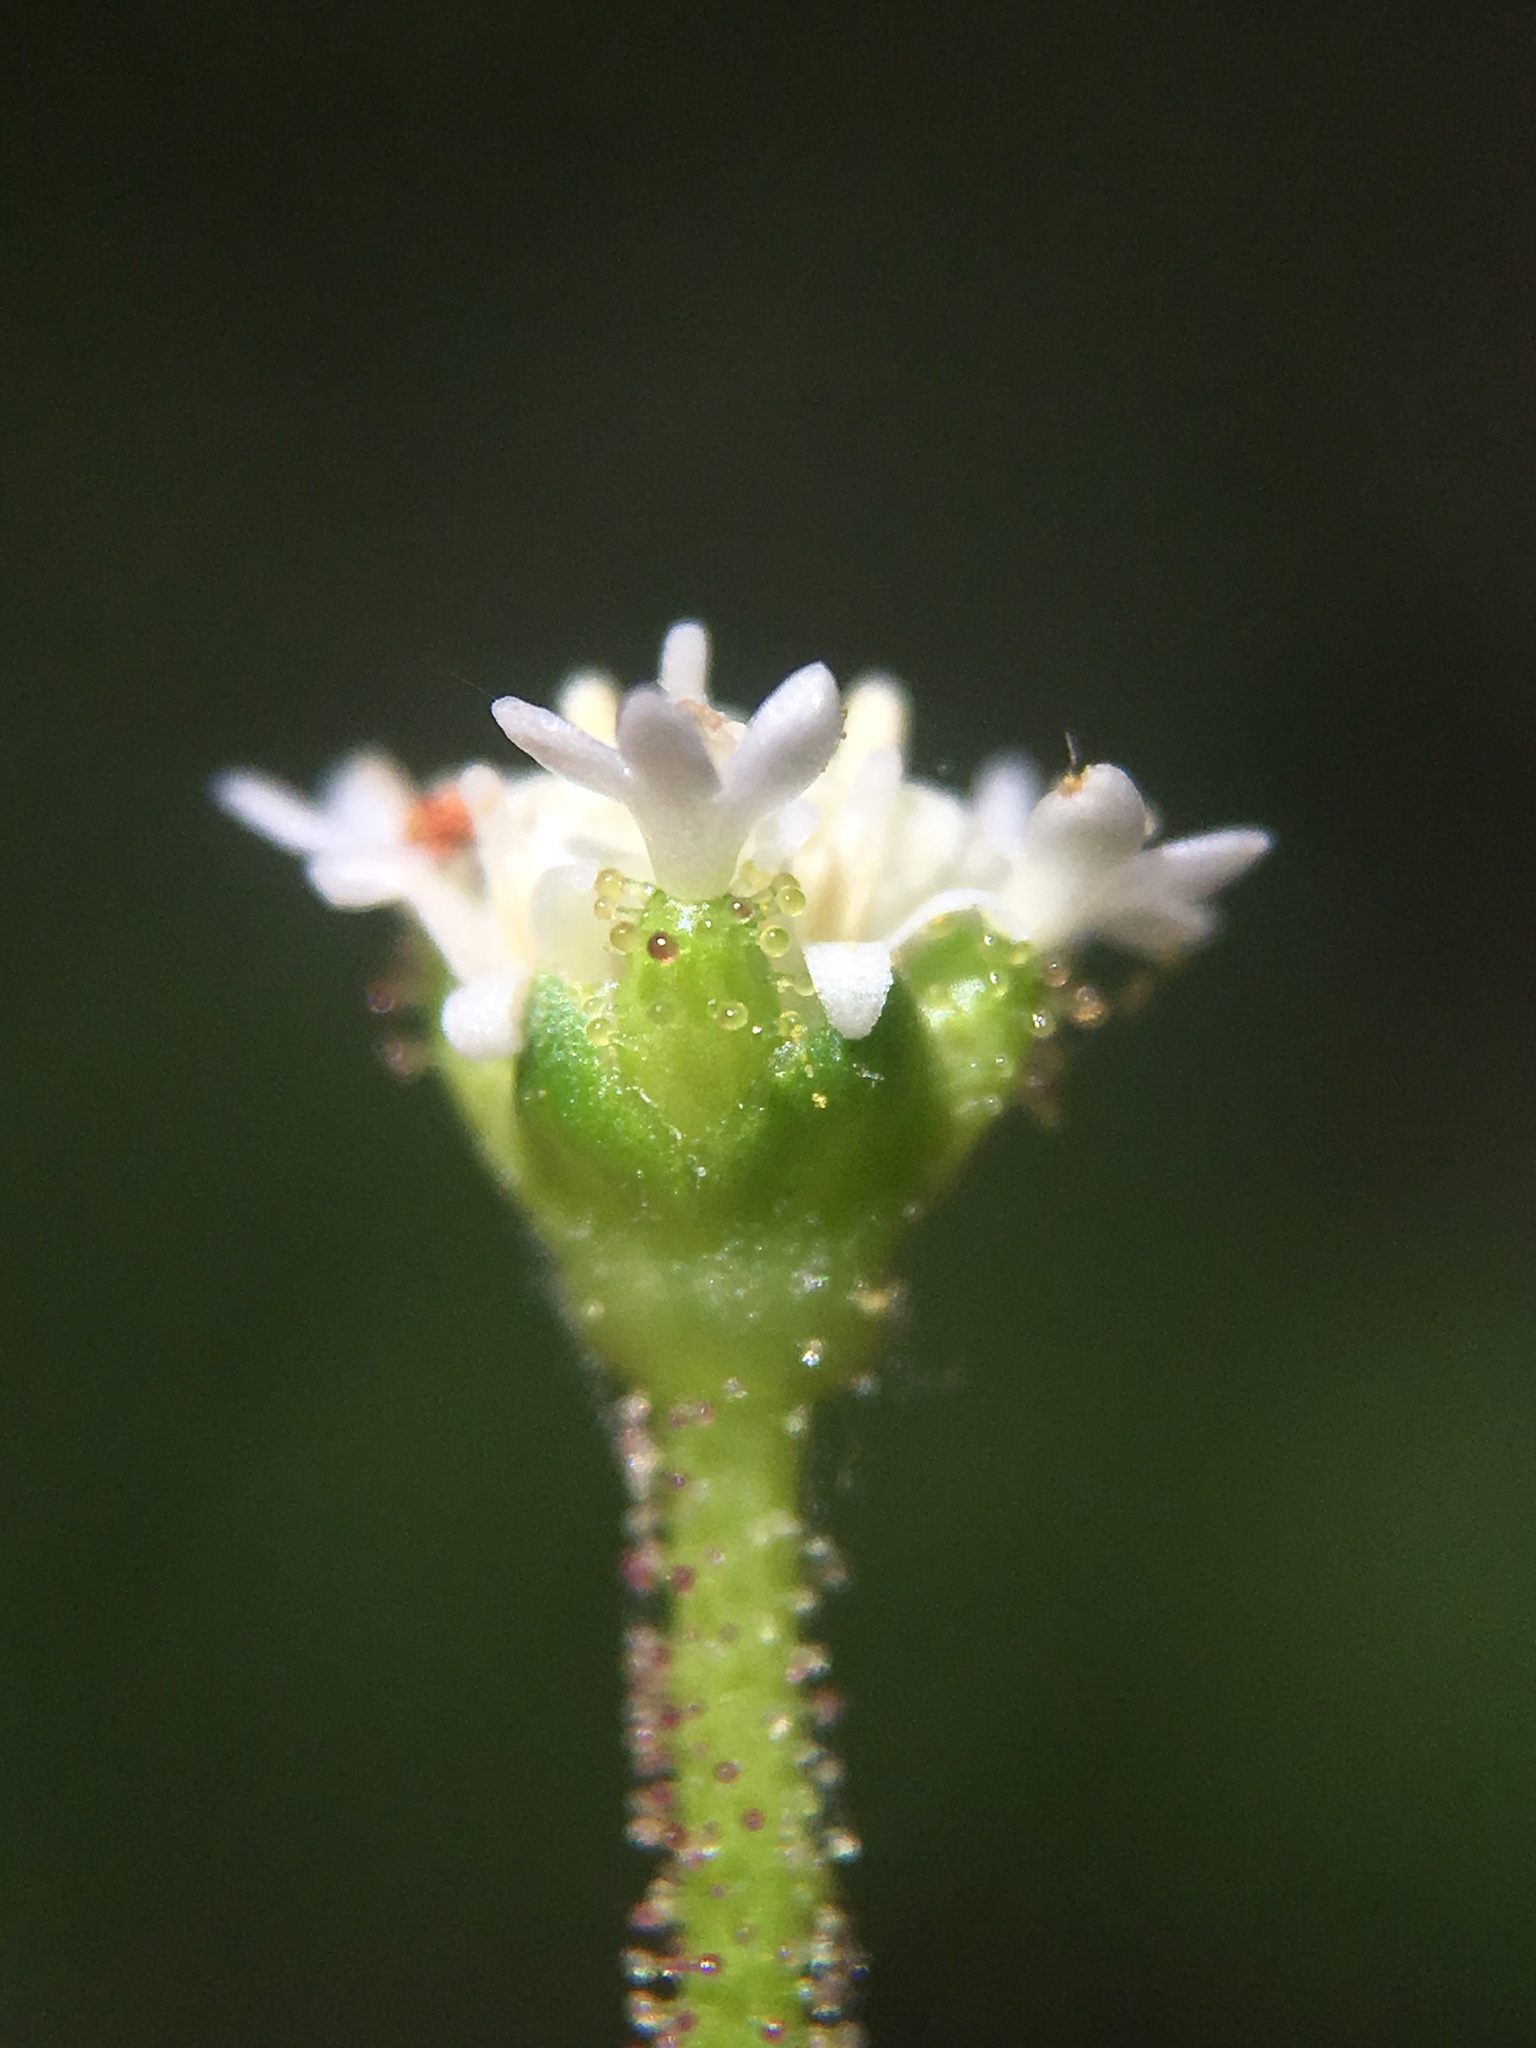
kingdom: Plantae
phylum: Tracheophyta
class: Magnoliopsida
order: Asterales
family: Asteraceae
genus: Adenocaulon
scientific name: Adenocaulon bicolor
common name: Trailplant
